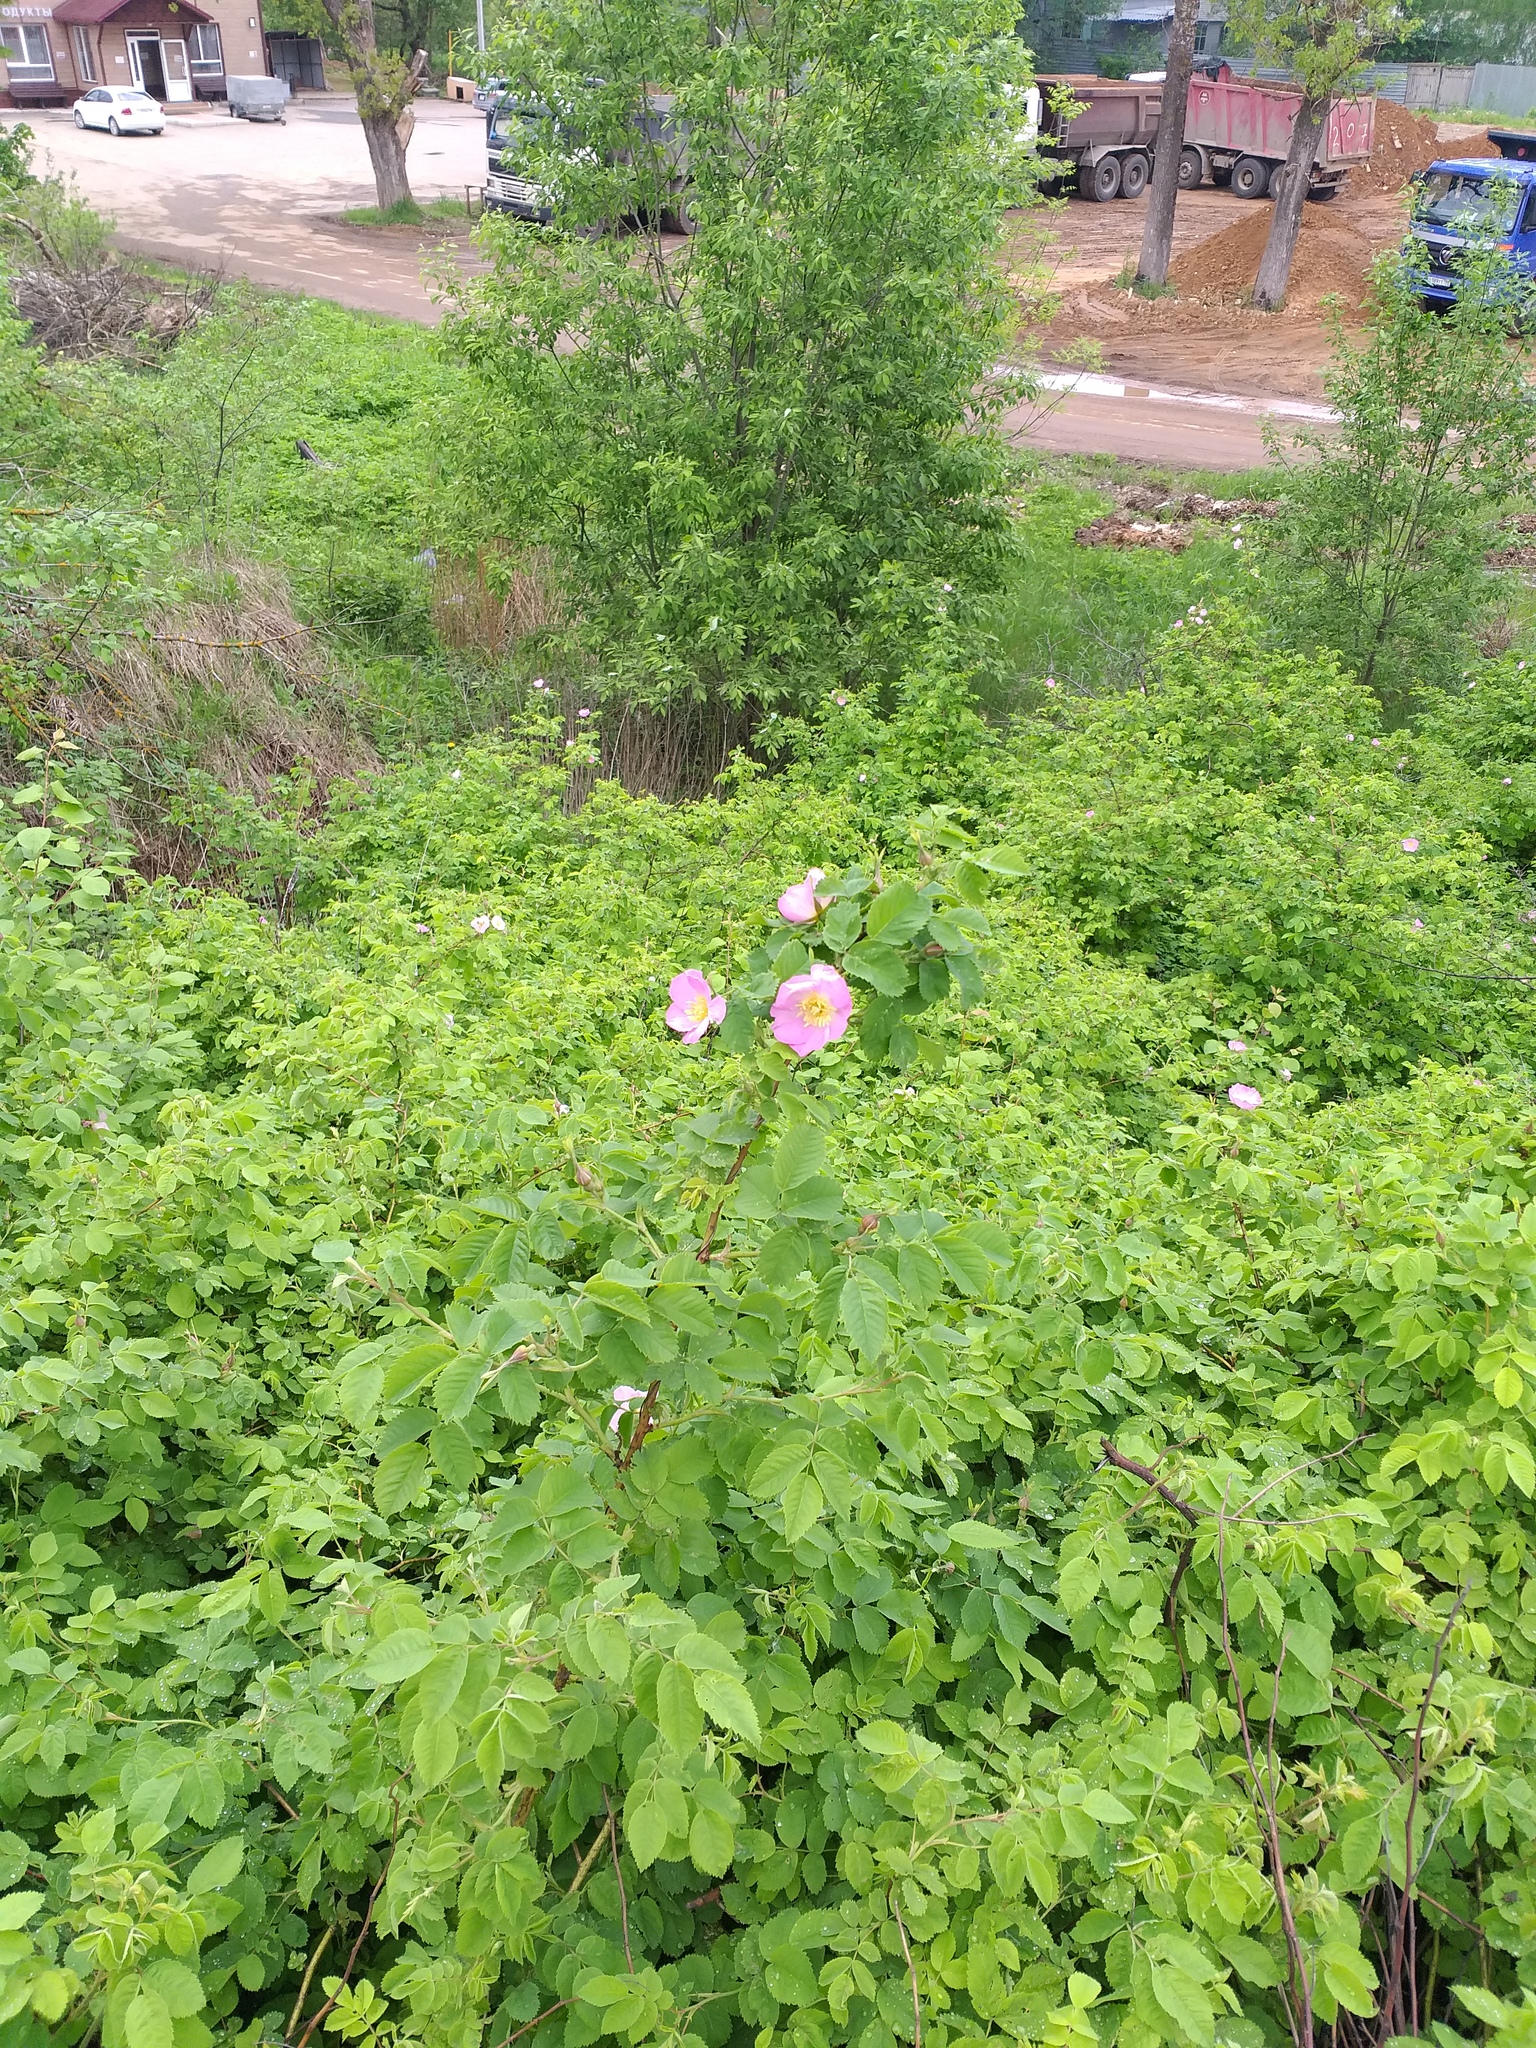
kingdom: Plantae
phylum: Tracheophyta
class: Magnoliopsida
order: Rosales
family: Rosaceae
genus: Rosa
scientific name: Rosa pendulina
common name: Alpine rose
